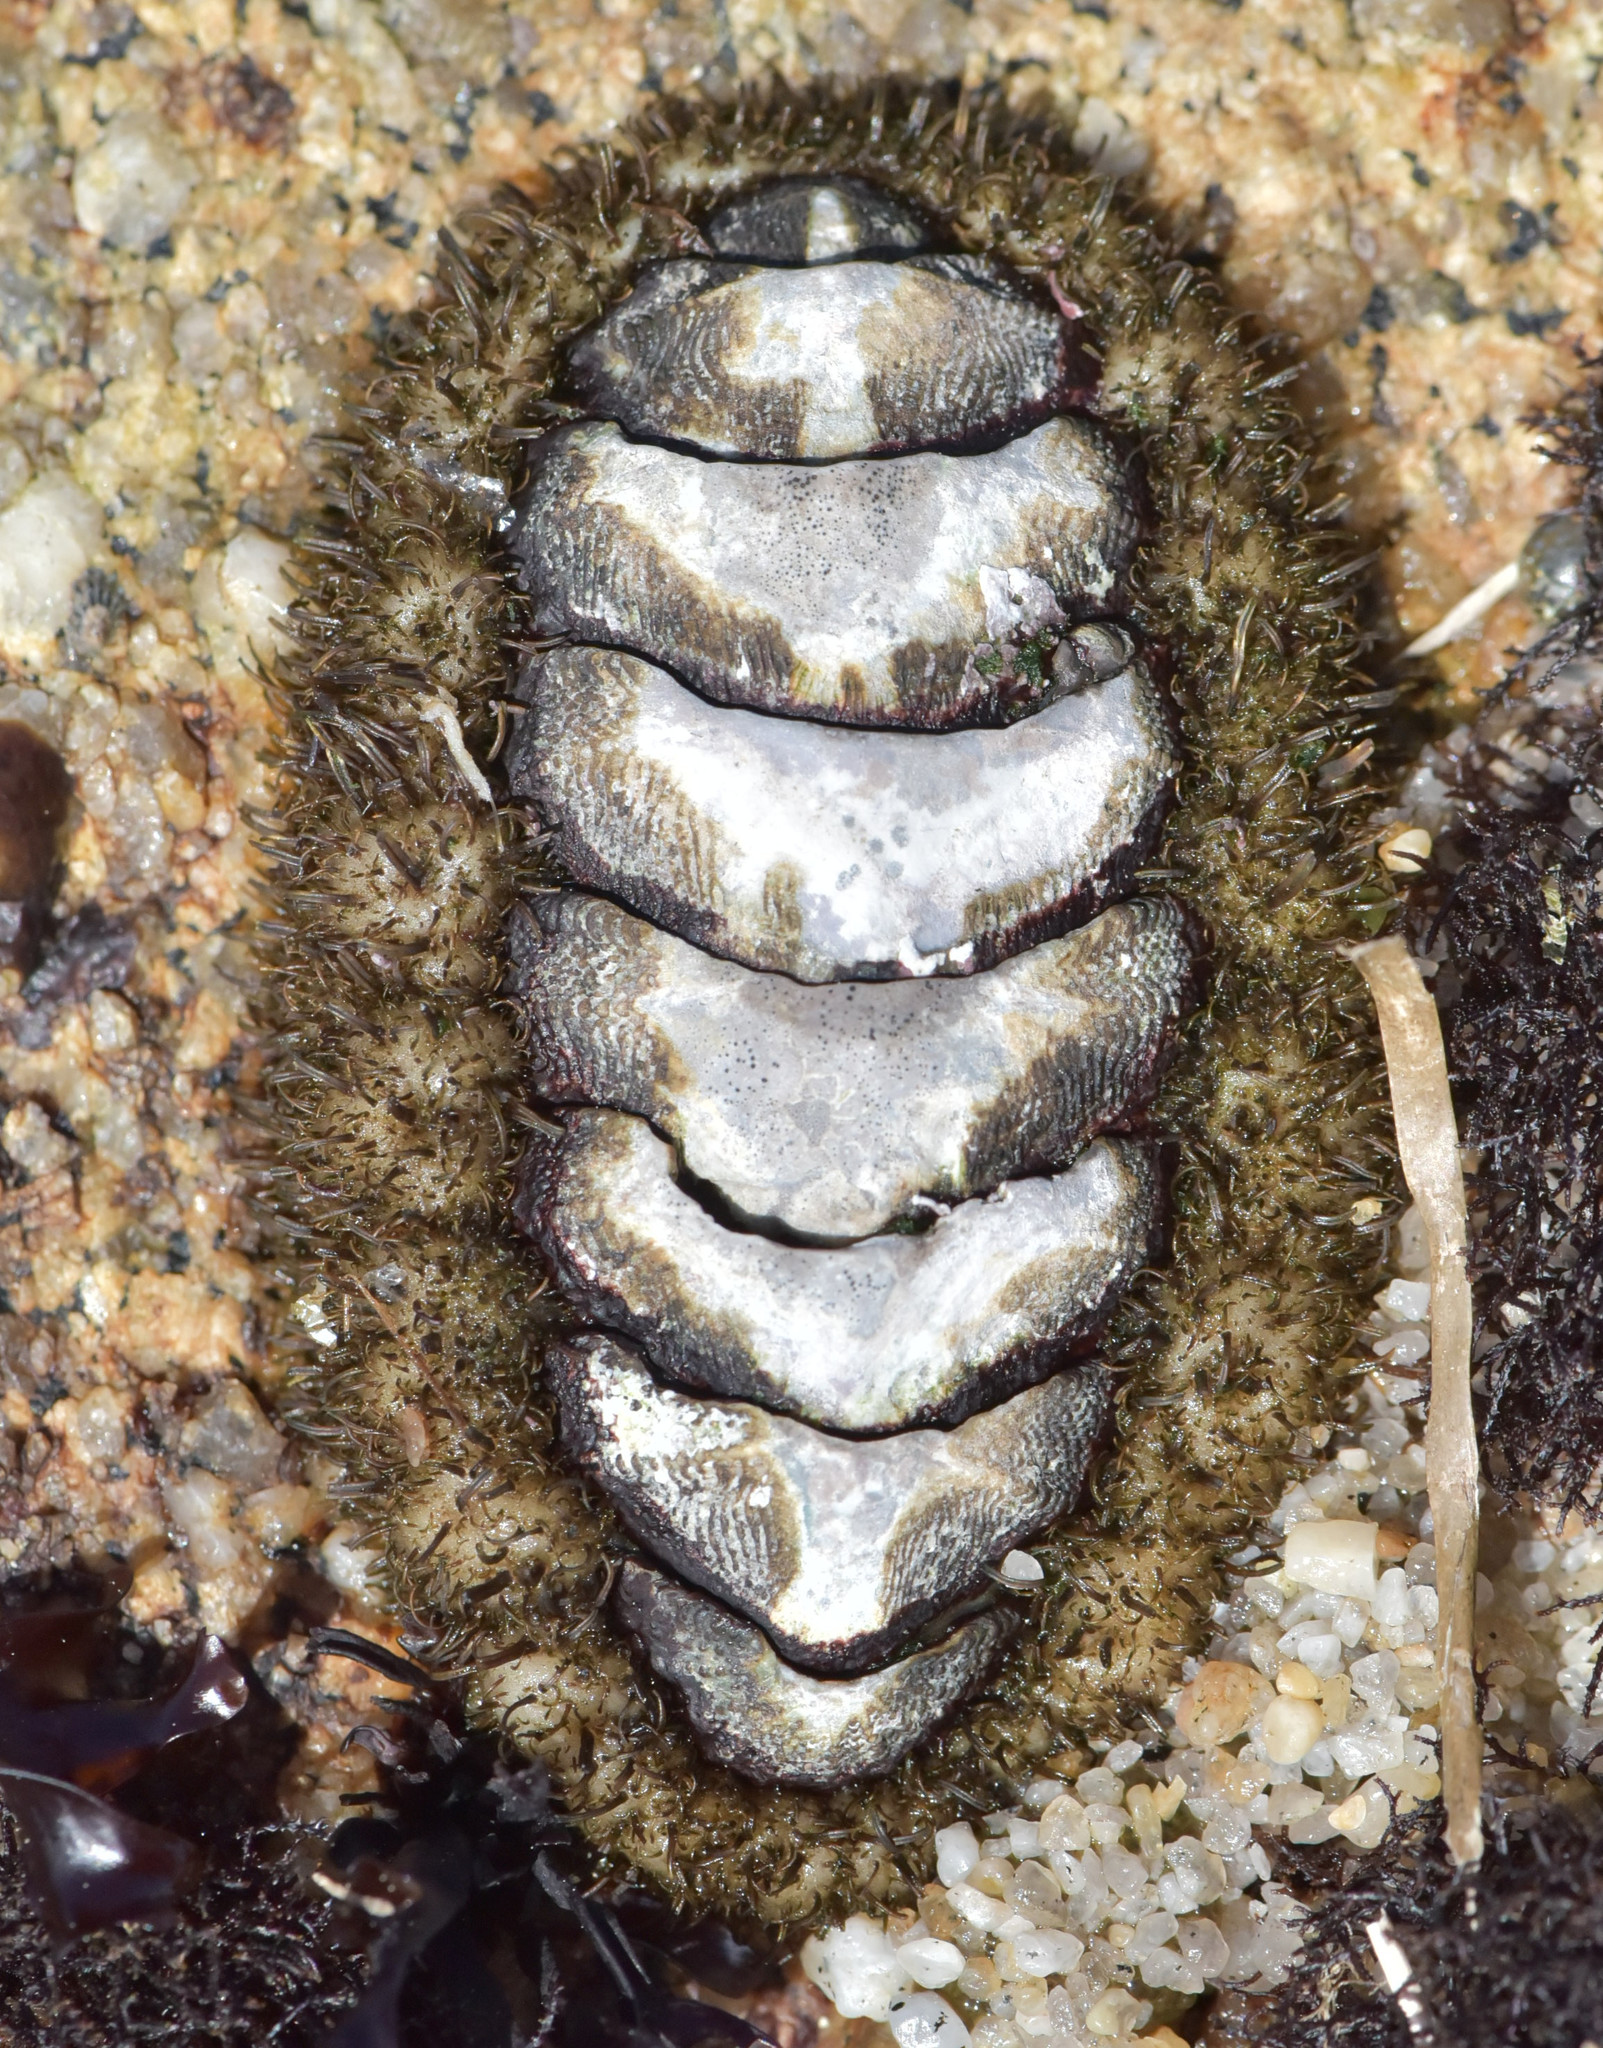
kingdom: Animalia
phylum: Mollusca
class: Polyplacophora
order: Chitonida
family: Mopaliidae
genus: Mopalia
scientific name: Mopalia muscosa
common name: Mossy chiton
